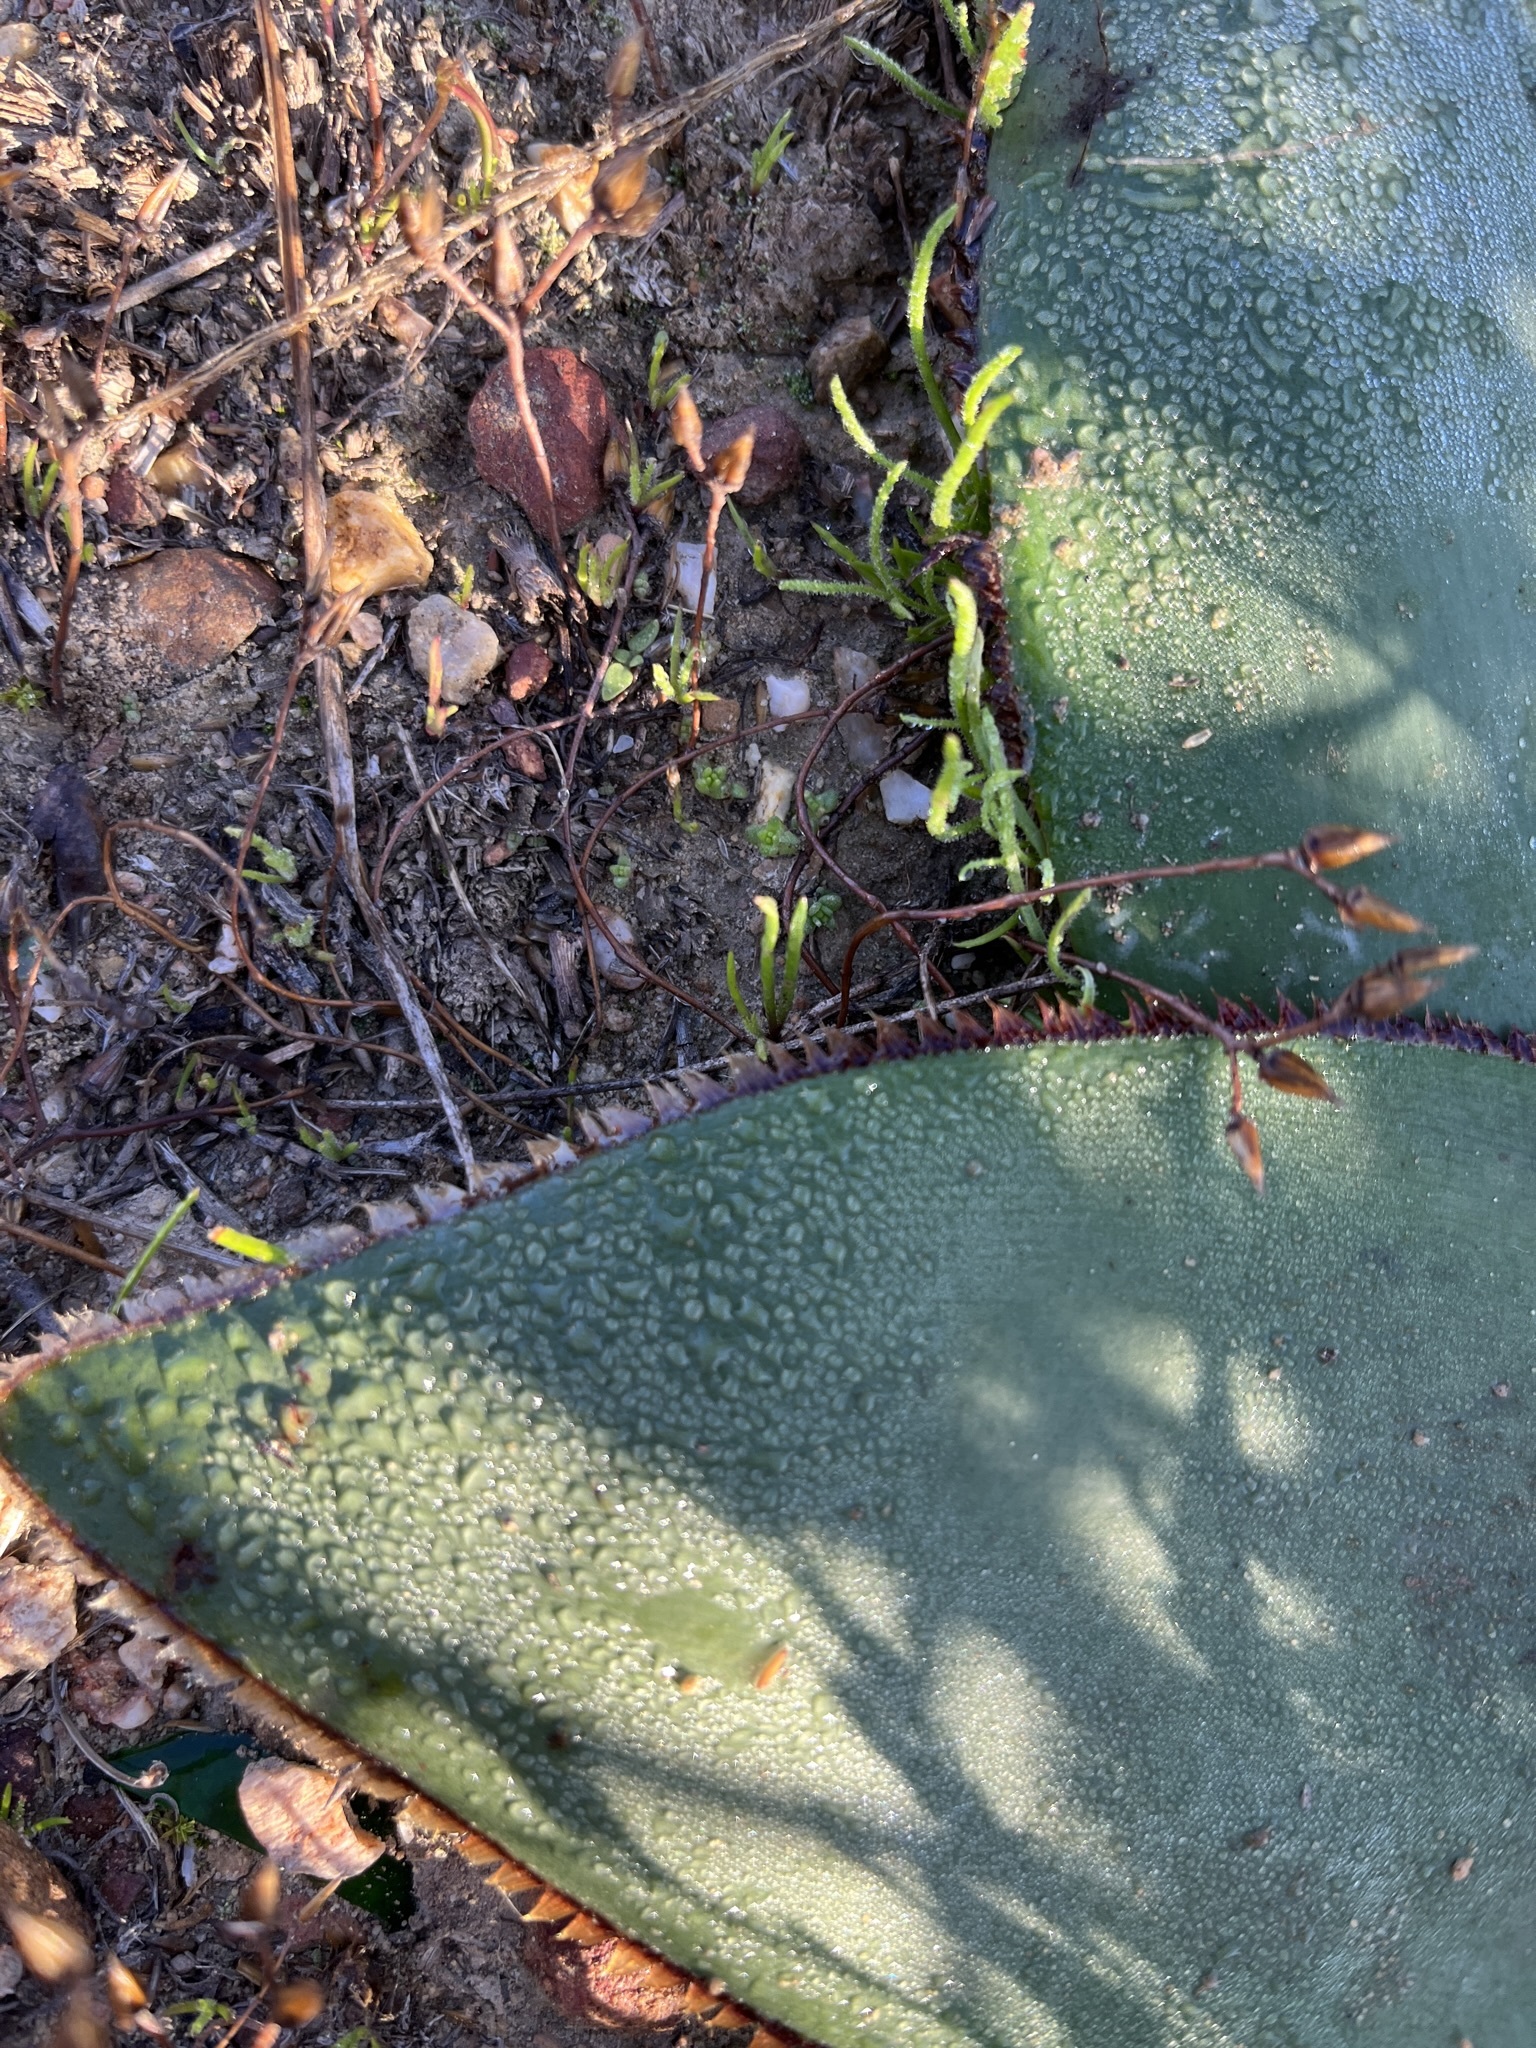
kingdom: Plantae
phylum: Tracheophyta
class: Liliopsida
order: Asparagales
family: Amaryllidaceae
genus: Crossyne
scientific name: Crossyne guttata
